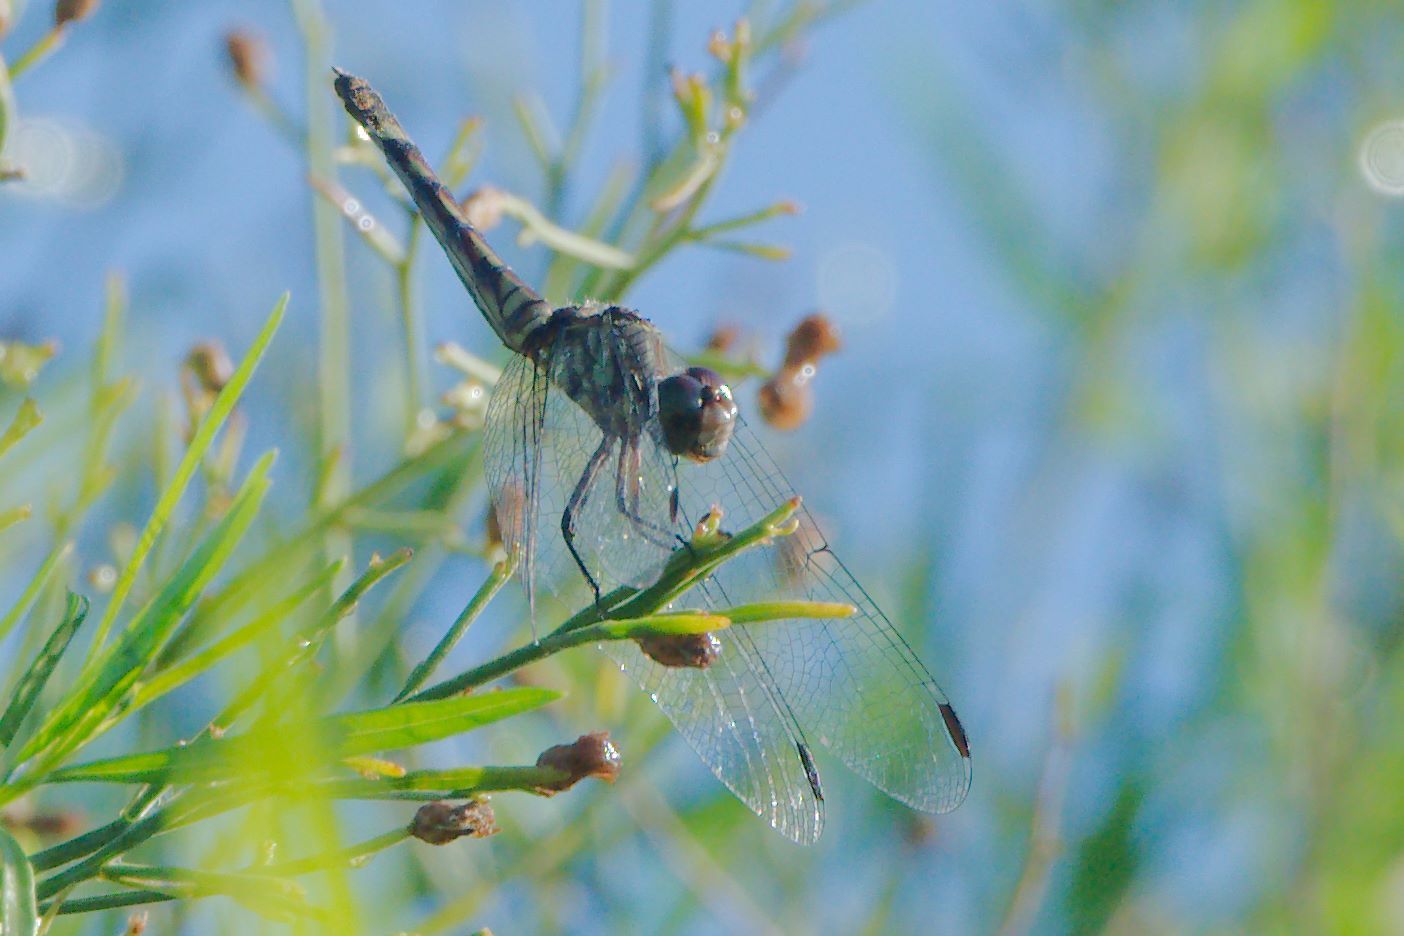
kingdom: Animalia
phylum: Arthropoda
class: Insecta
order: Odonata
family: Libellulidae
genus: Micrathyria
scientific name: Micrathyria hagenii
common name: Thornbush dasher
